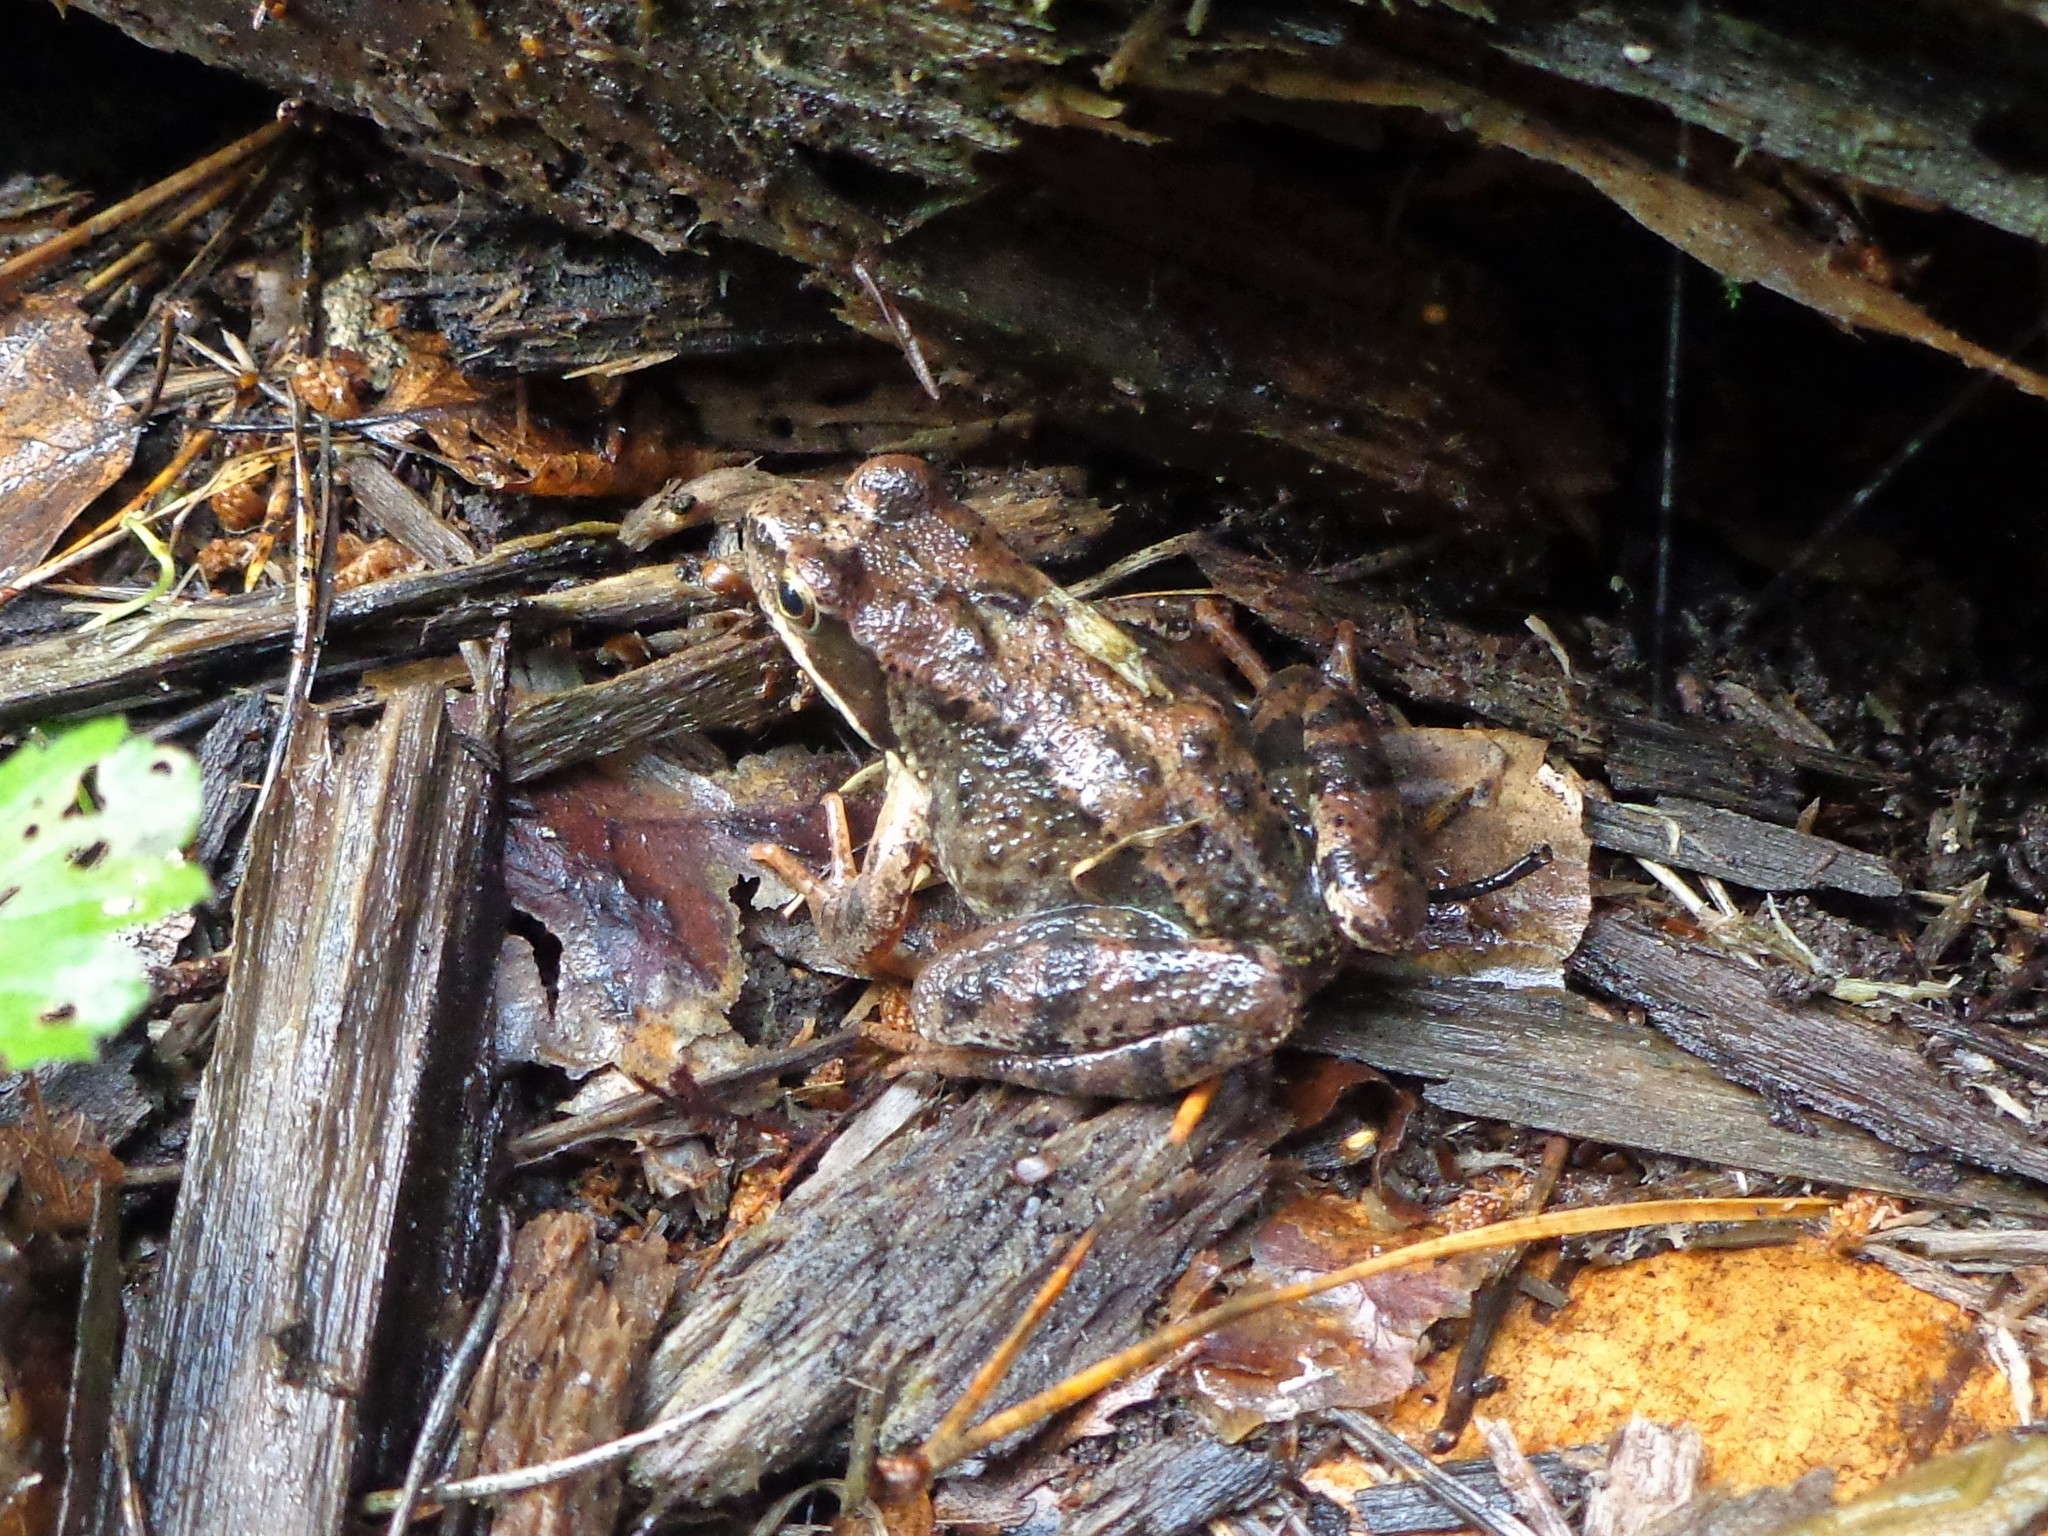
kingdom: Animalia
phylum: Chordata
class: Amphibia
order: Anura
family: Ranidae
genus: Rana
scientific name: Rana temporaria
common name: Common frog
